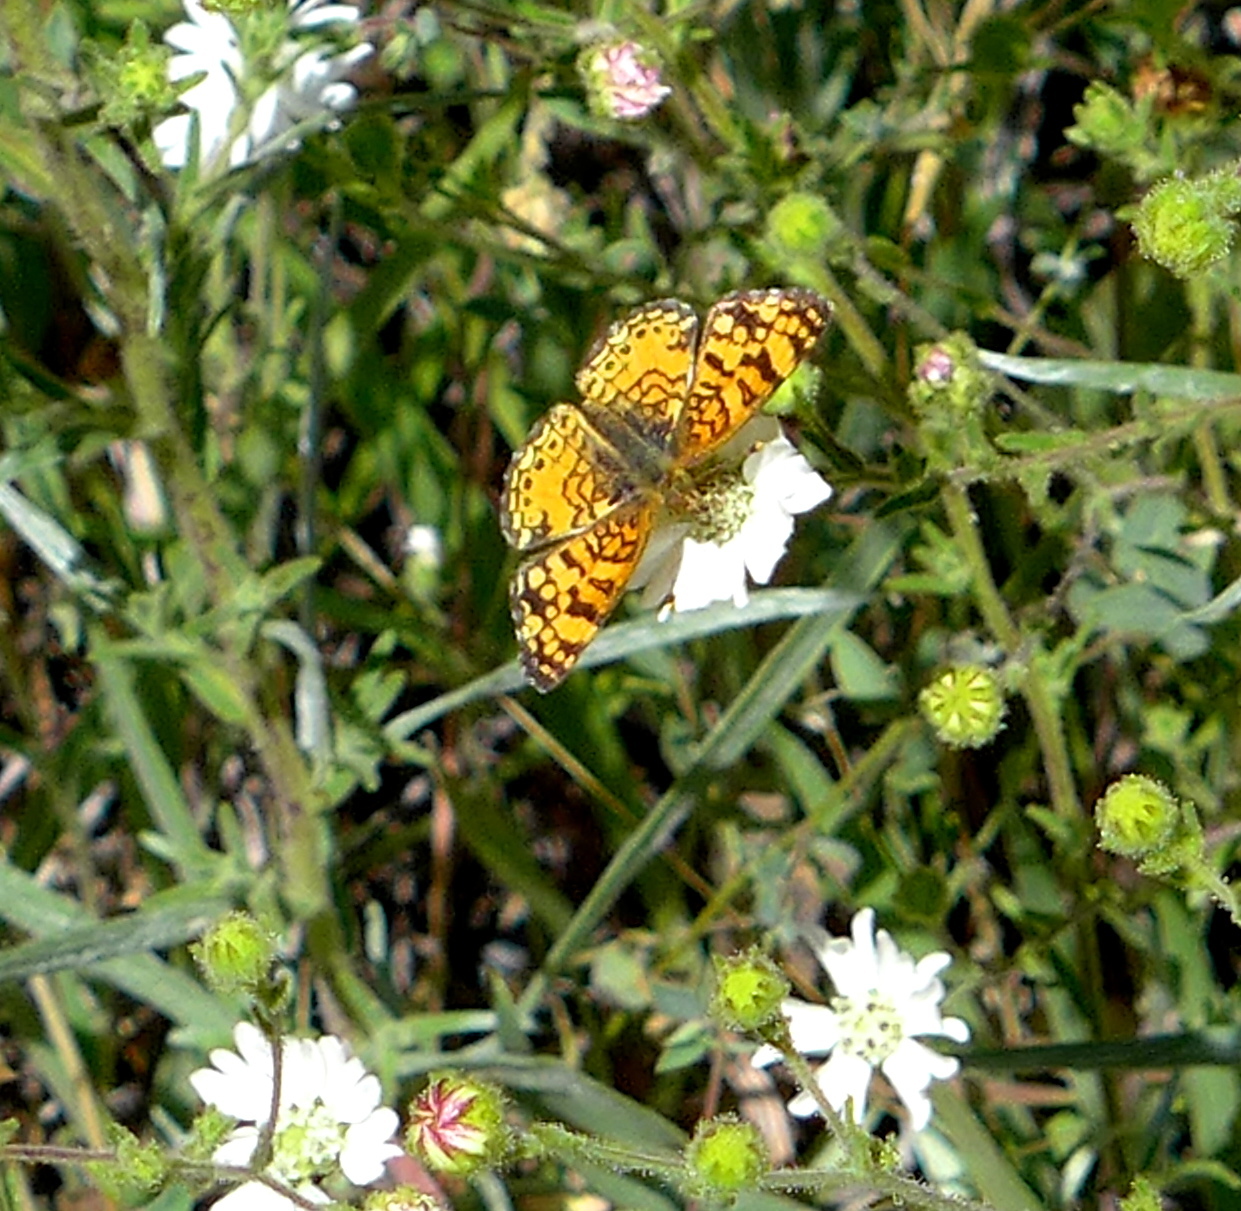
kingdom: Plantae
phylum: Tracheophyta
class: Magnoliopsida
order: Asterales
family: Asteraceae
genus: Hemizonia
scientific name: Hemizonia congesta
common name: Hayfield tarweed
